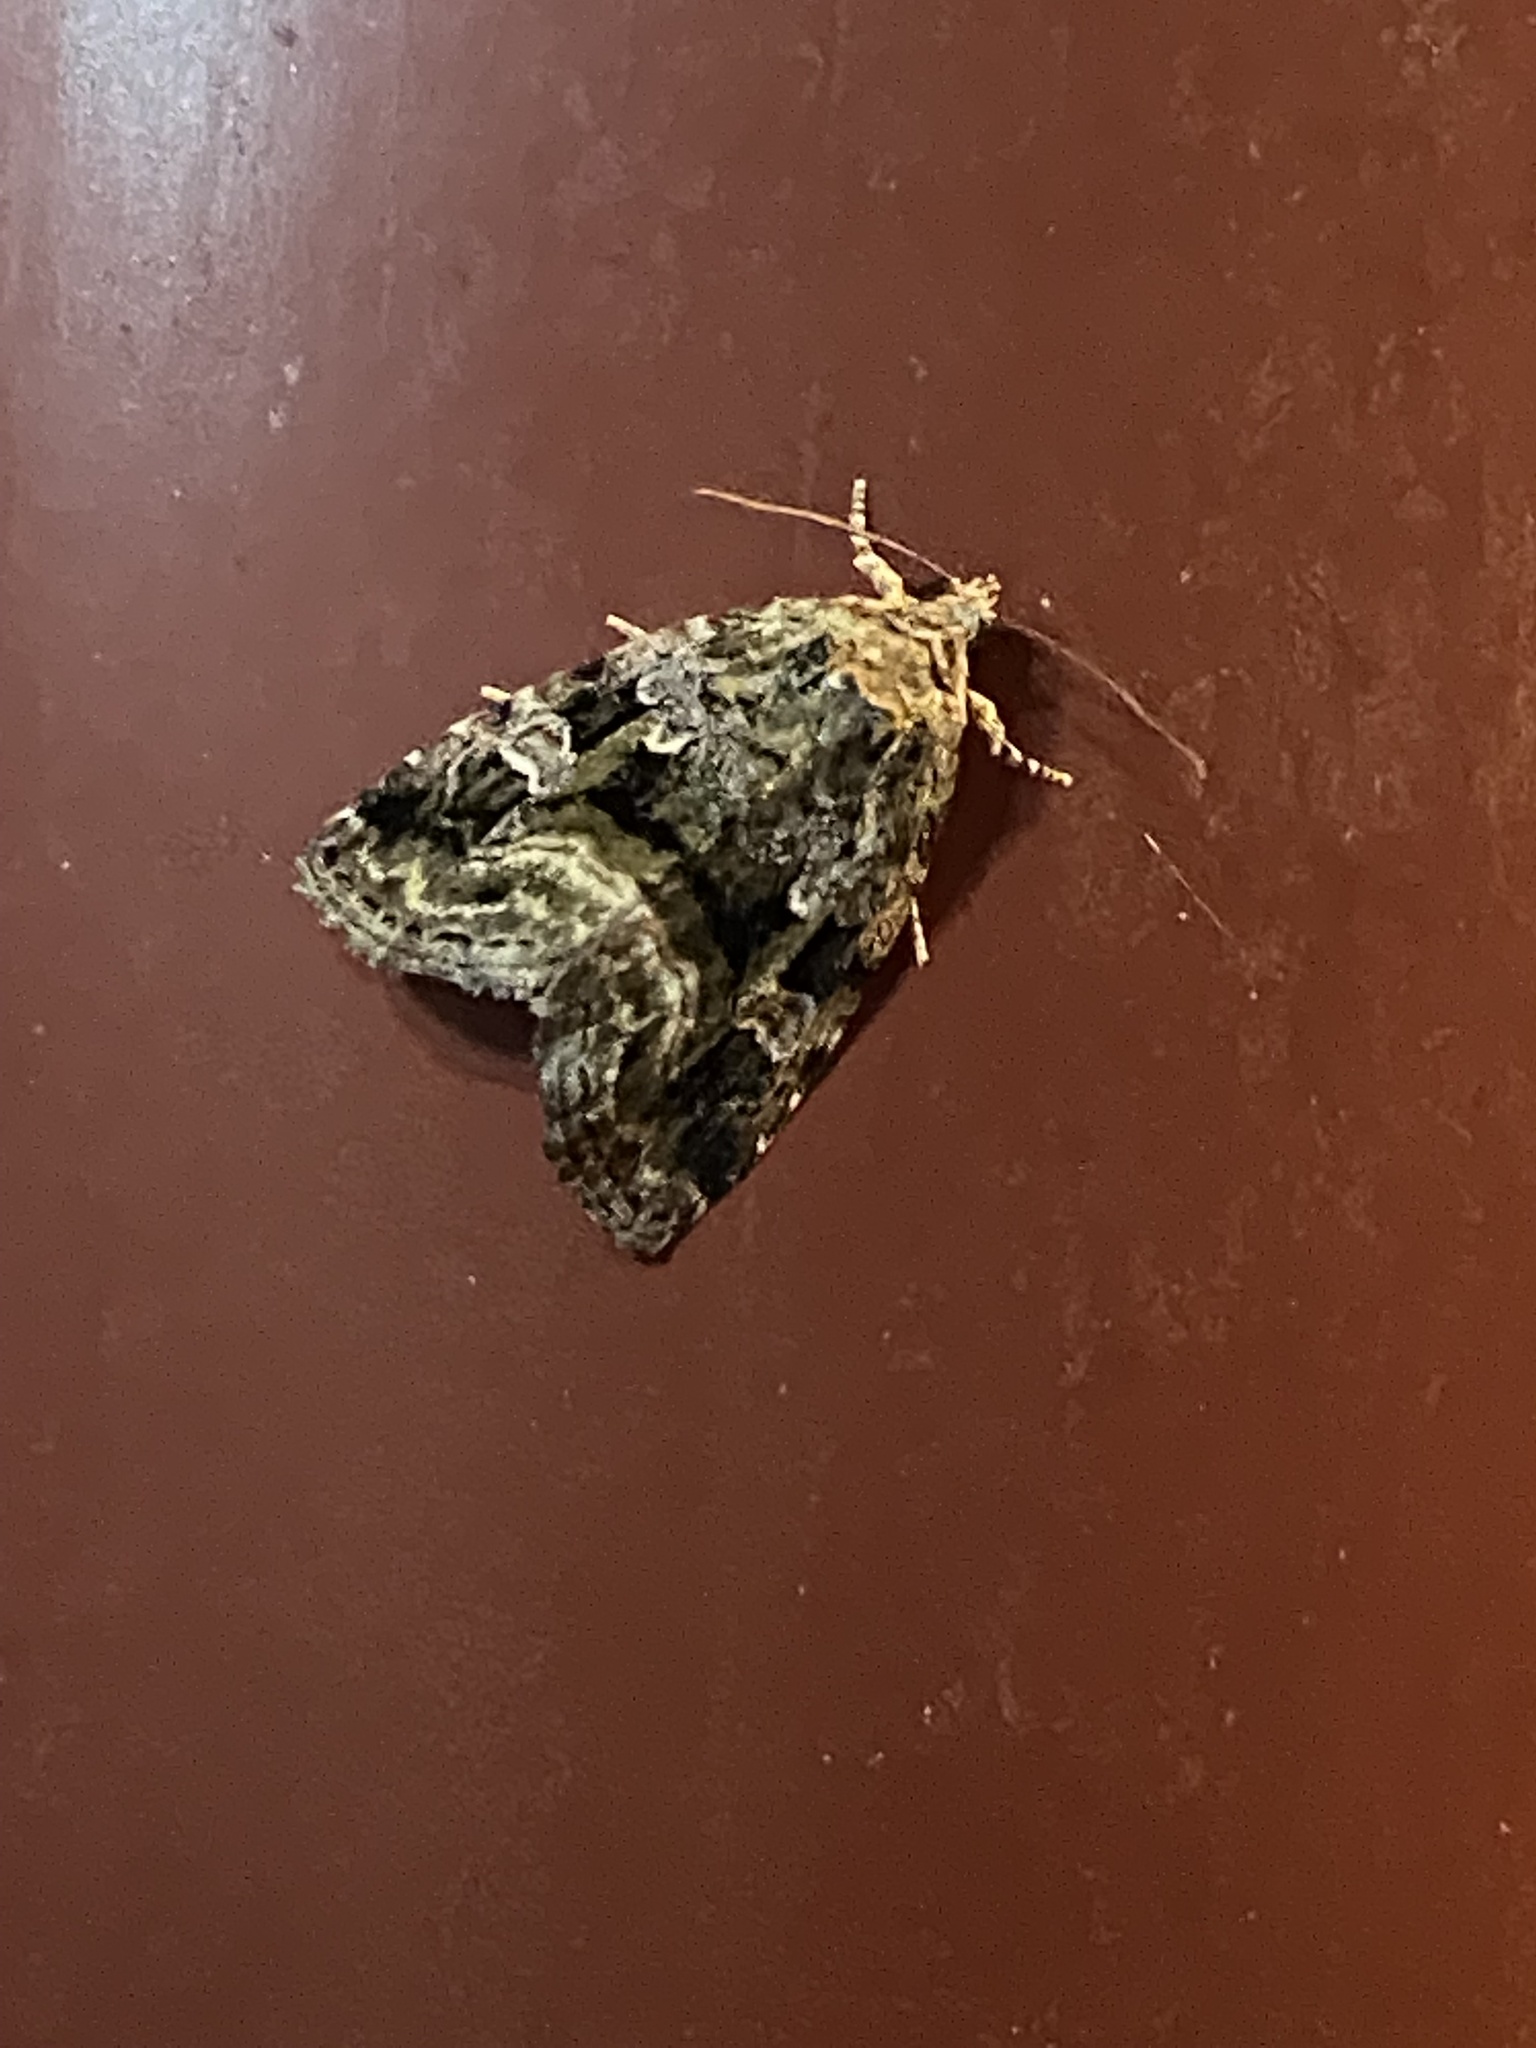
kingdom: Animalia
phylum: Arthropoda
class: Insecta
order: Lepidoptera
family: Noctuidae
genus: Protodeltote
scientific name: Protodeltote muscosula
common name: Large mossy glyph
